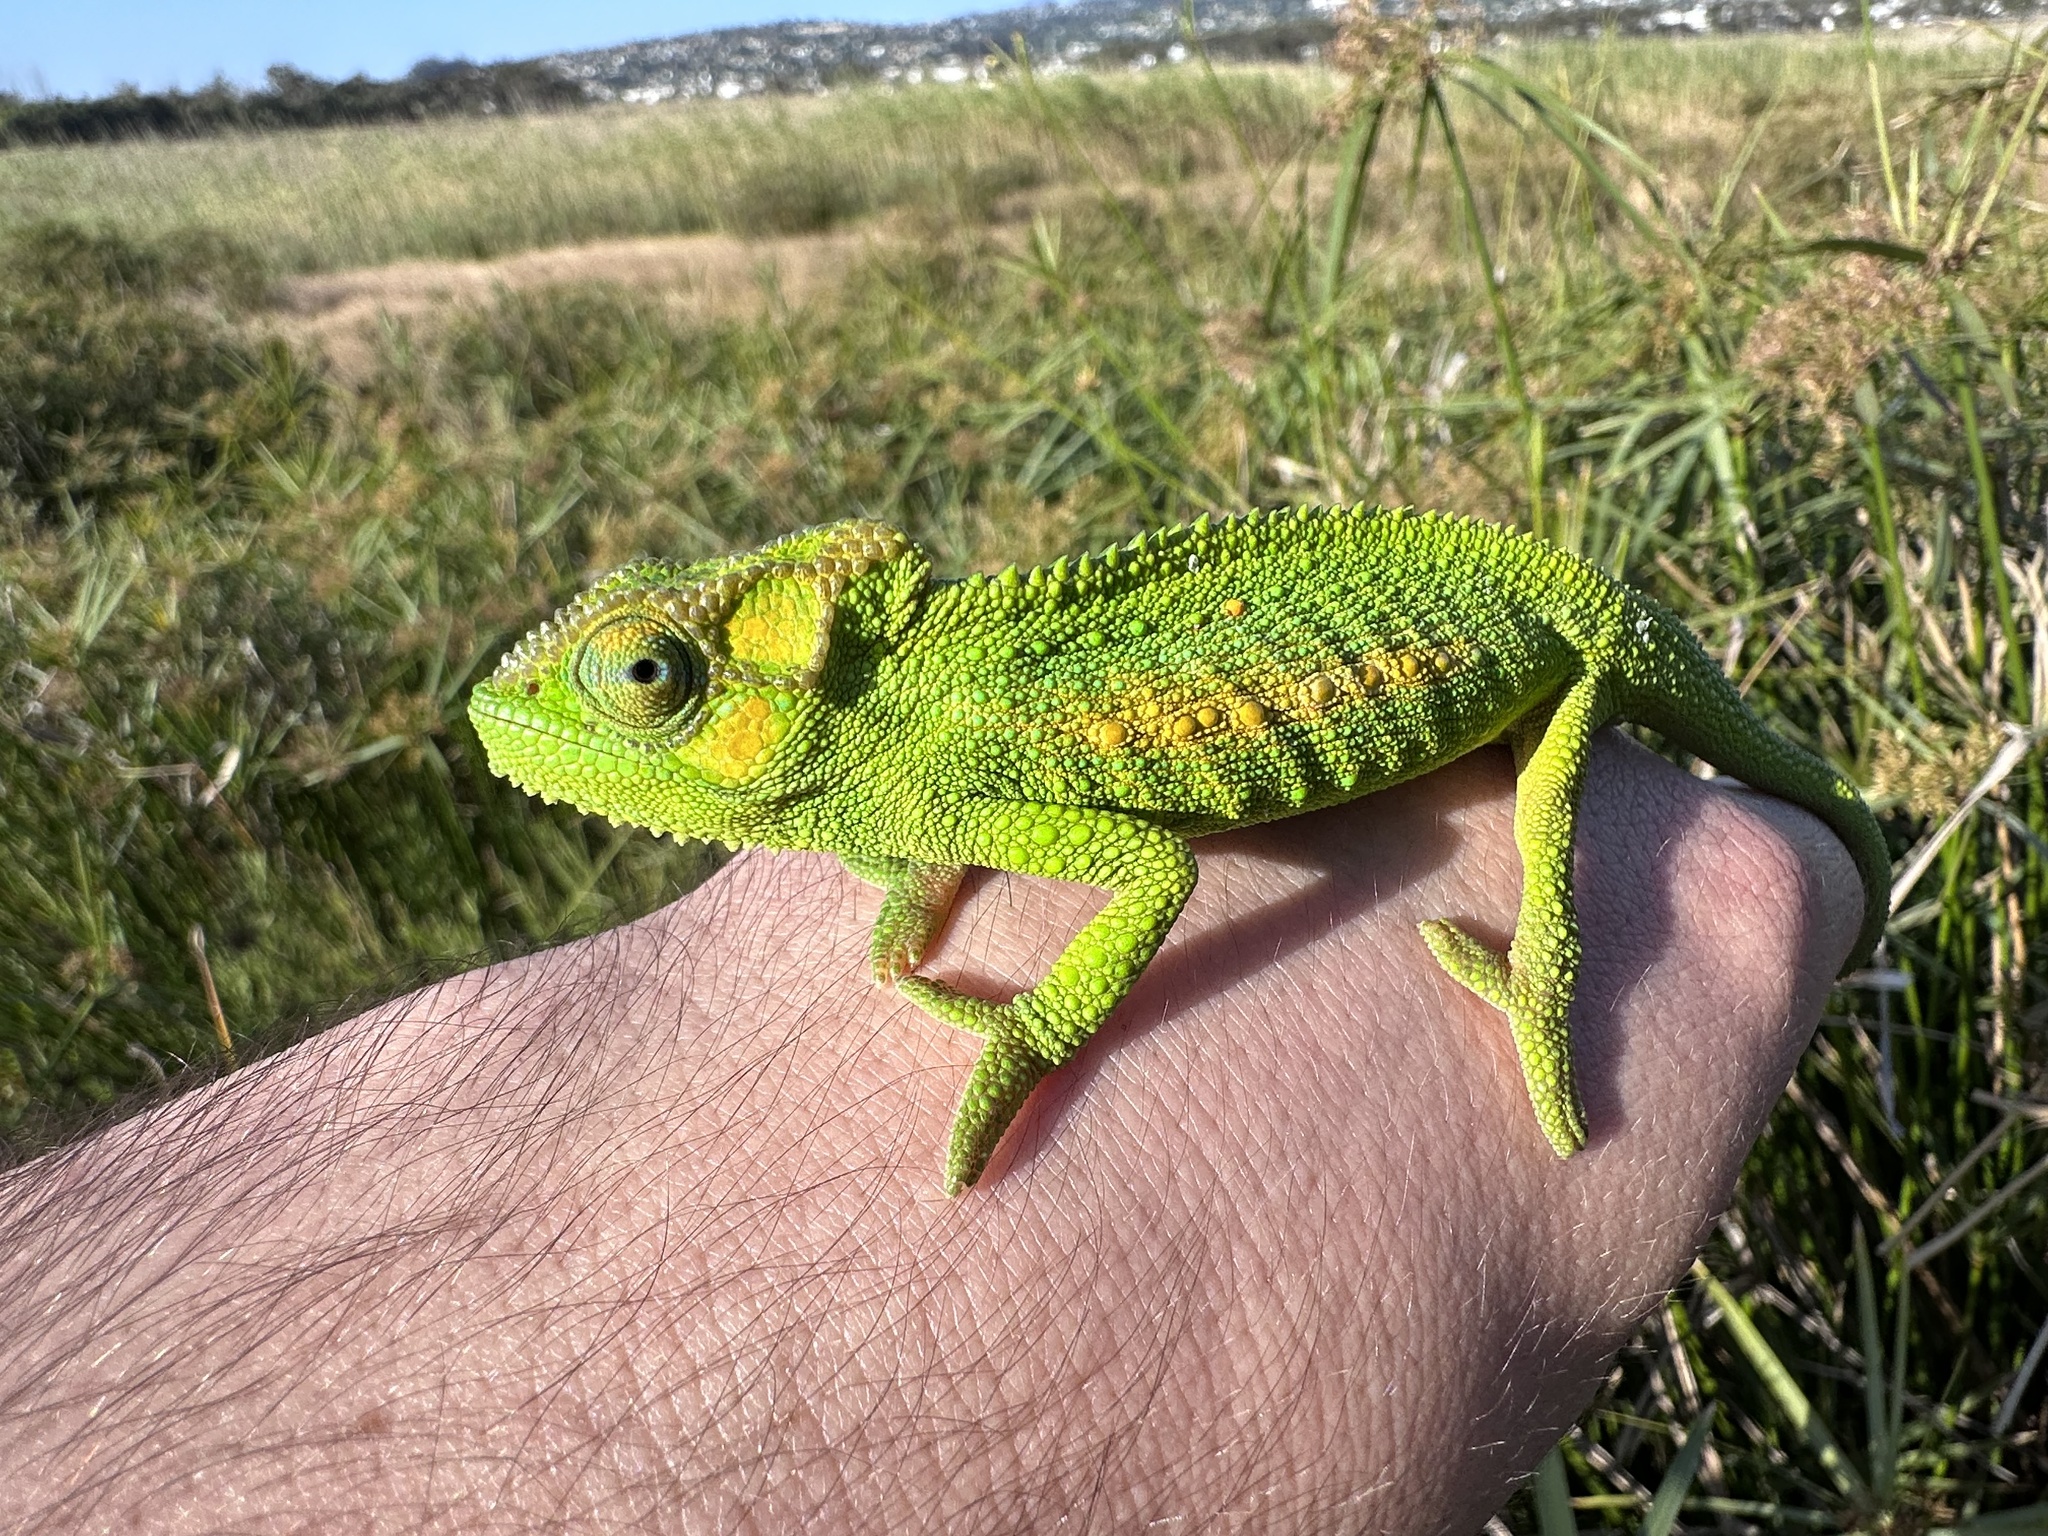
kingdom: Animalia
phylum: Chordata
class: Squamata
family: Chamaeleonidae
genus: Bradypodion
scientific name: Bradypodion pumilum
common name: Cape dwarf chameleon
